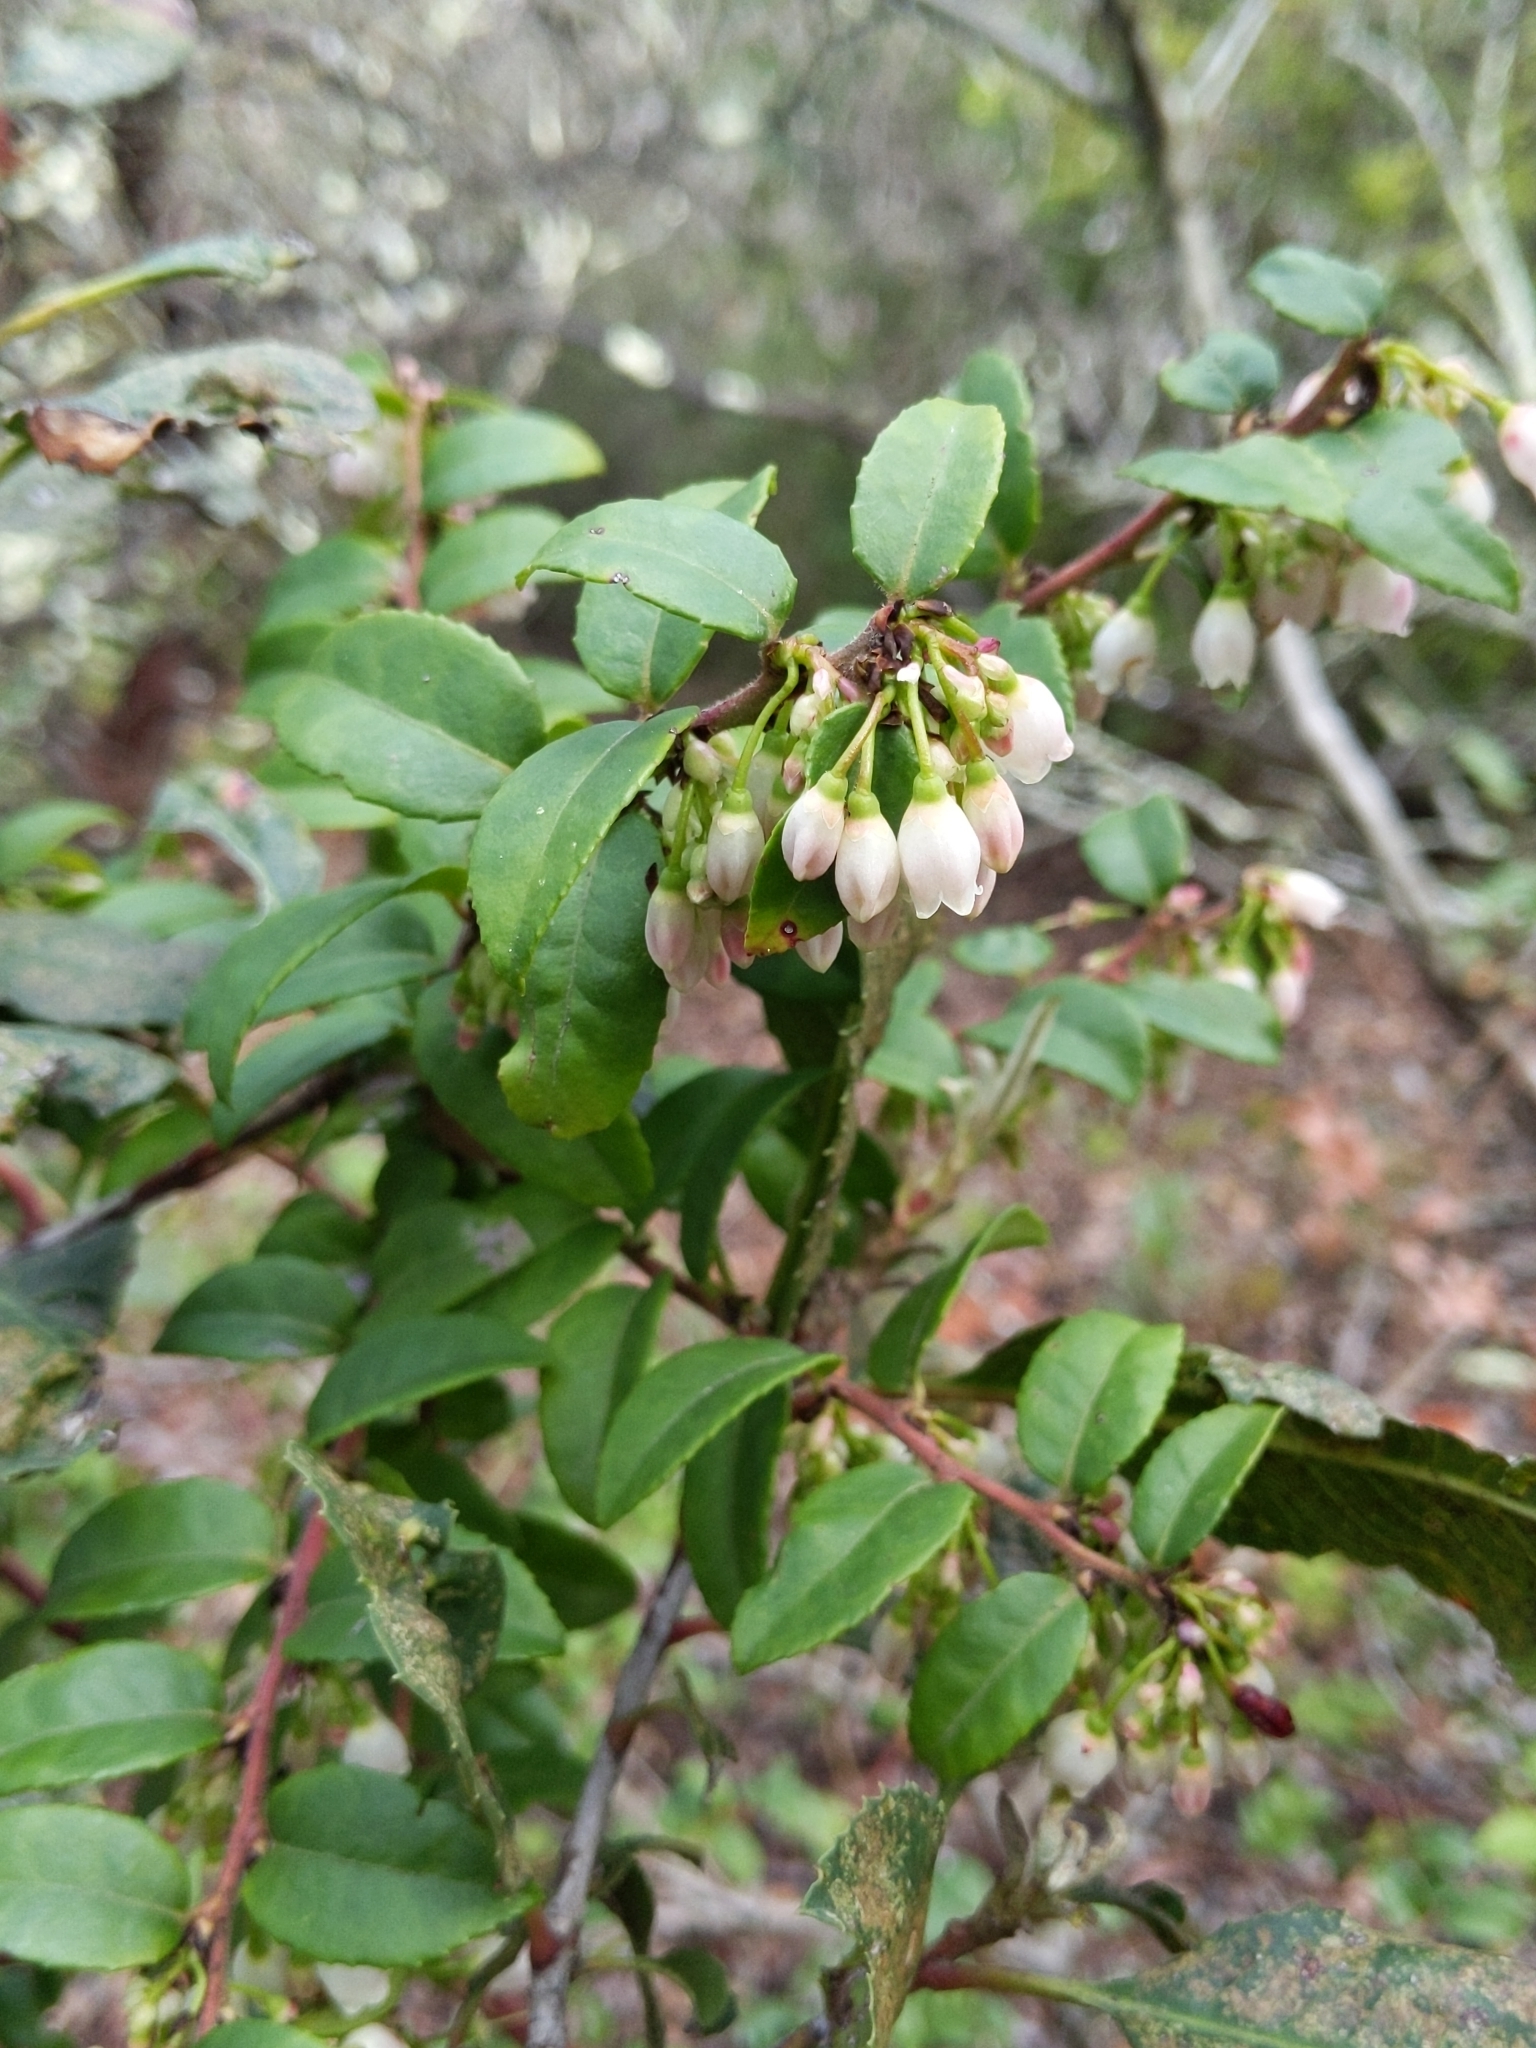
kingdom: Plantae
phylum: Tracheophyta
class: Magnoliopsida
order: Ericales
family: Ericaceae
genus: Vaccinium
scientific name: Vaccinium ovatum
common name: California-huckleberry
